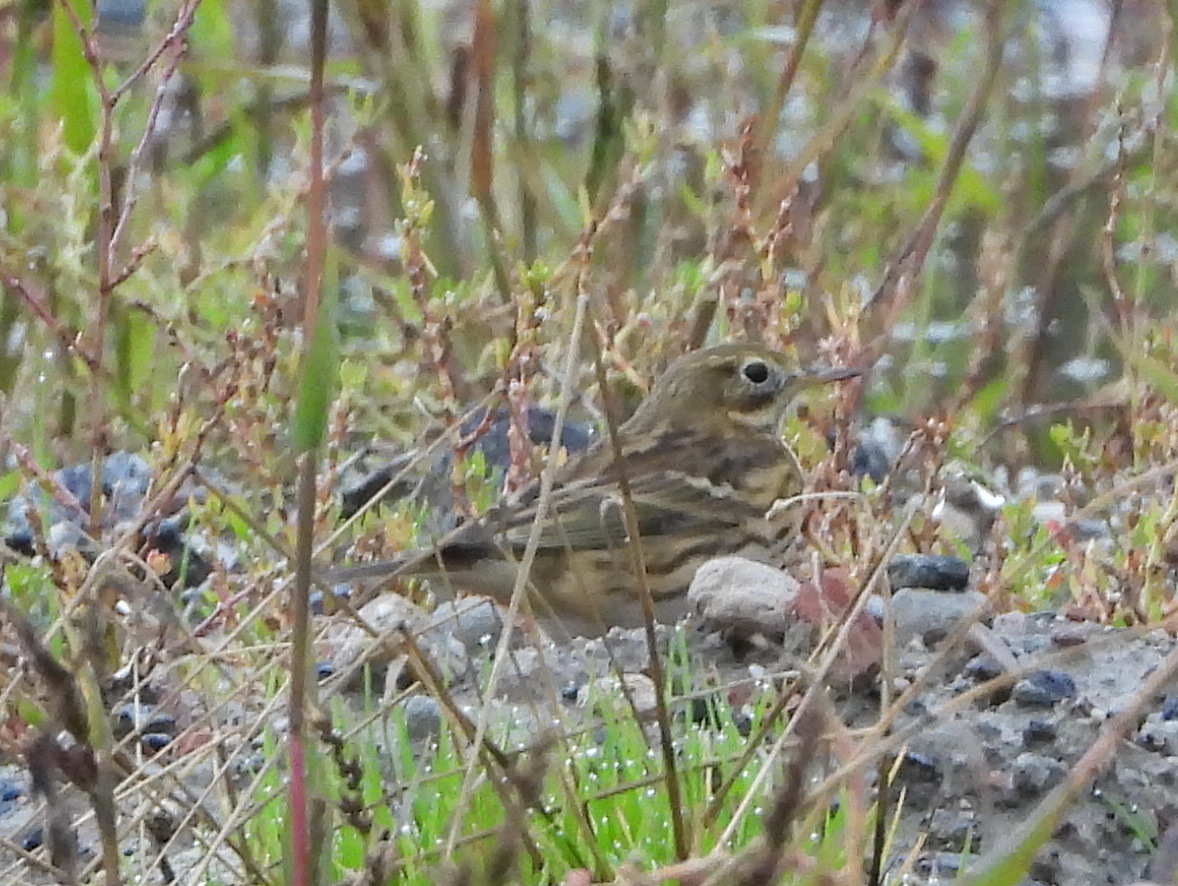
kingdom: Animalia
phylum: Chordata
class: Aves
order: Passeriformes
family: Motacillidae
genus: Anthus
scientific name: Anthus pratensis
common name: Meadow pipit
